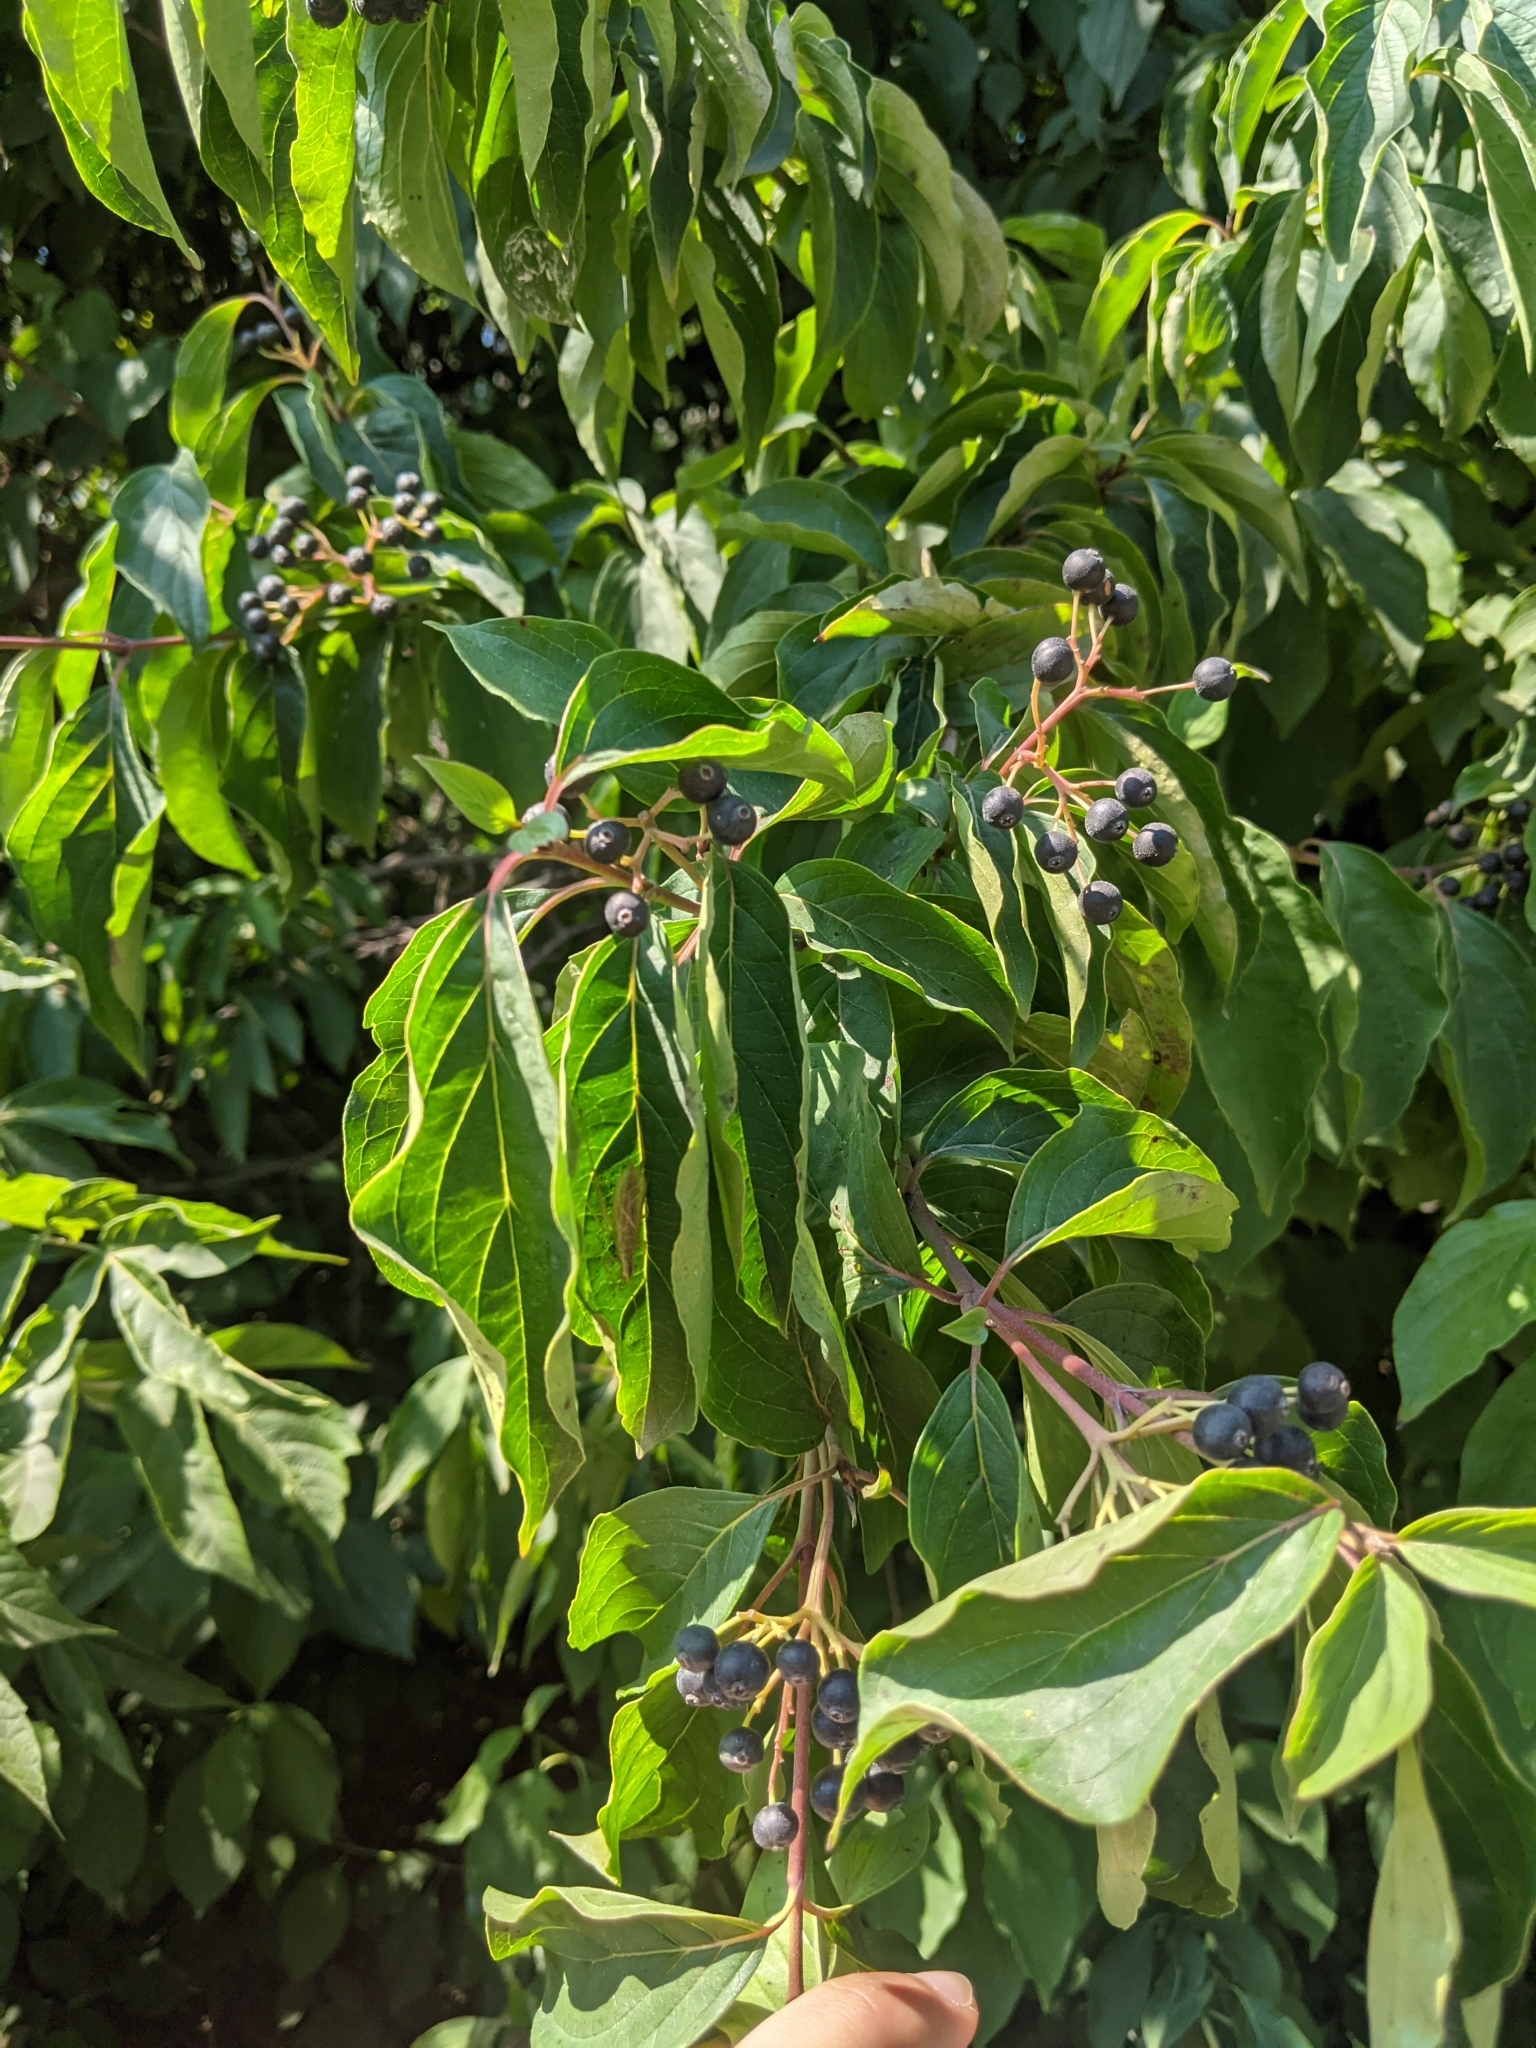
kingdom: Plantae
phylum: Tracheophyta
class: Magnoliopsida
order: Rosales
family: Rhamnaceae
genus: Rhamnus
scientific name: Rhamnus cathartica
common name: Common buckthorn
